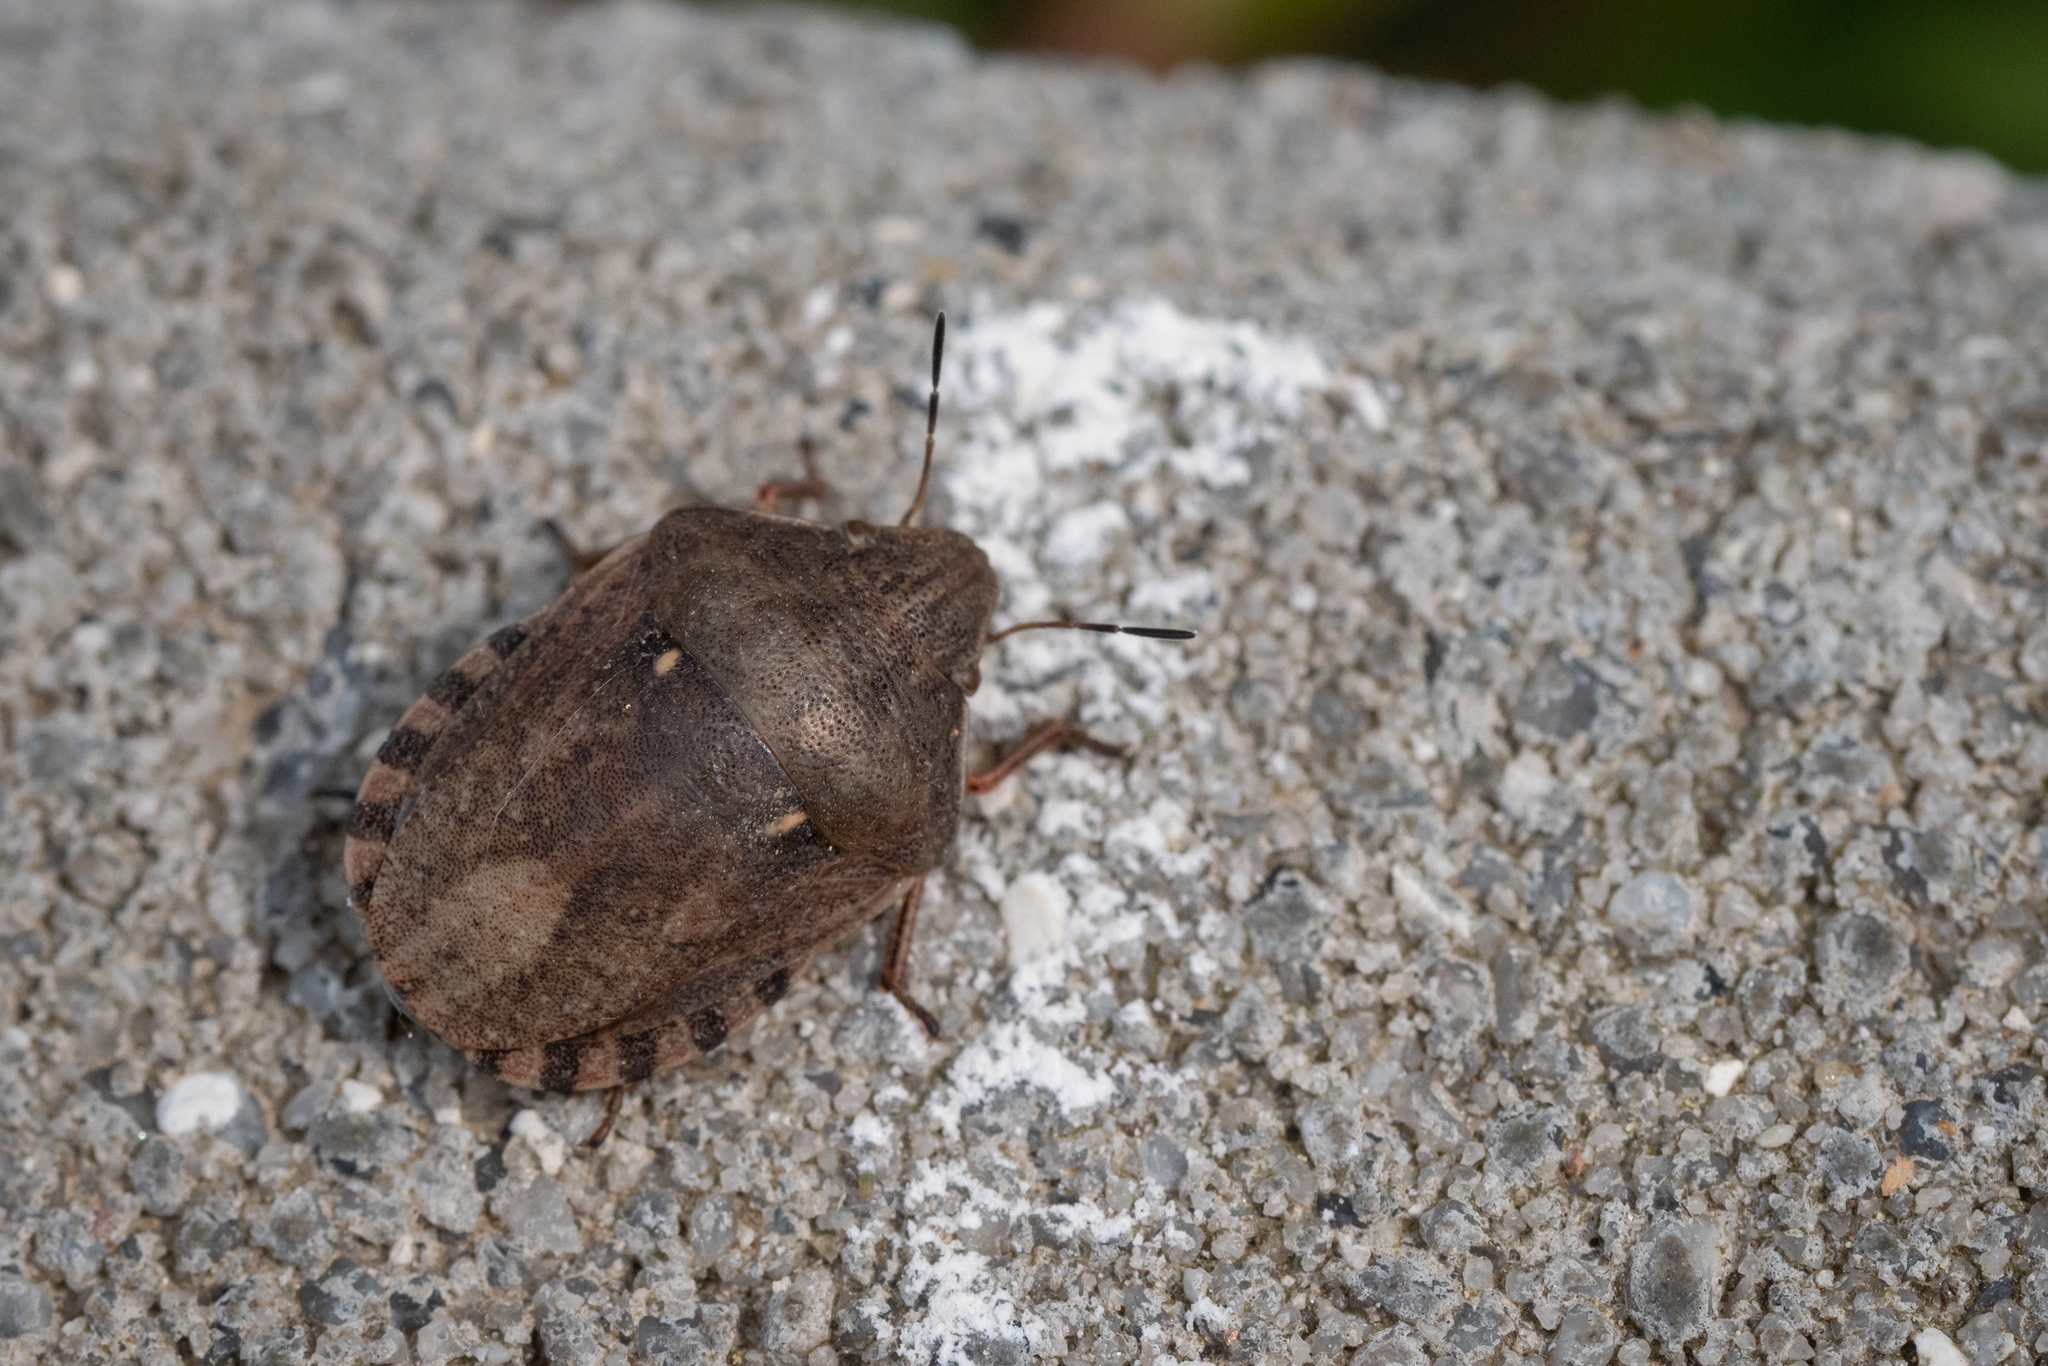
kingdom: Animalia
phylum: Arthropoda
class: Insecta
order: Hemiptera
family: Scutelleridae
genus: Eurygaster
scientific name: Eurygaster testudinaria
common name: Tortoise bug
